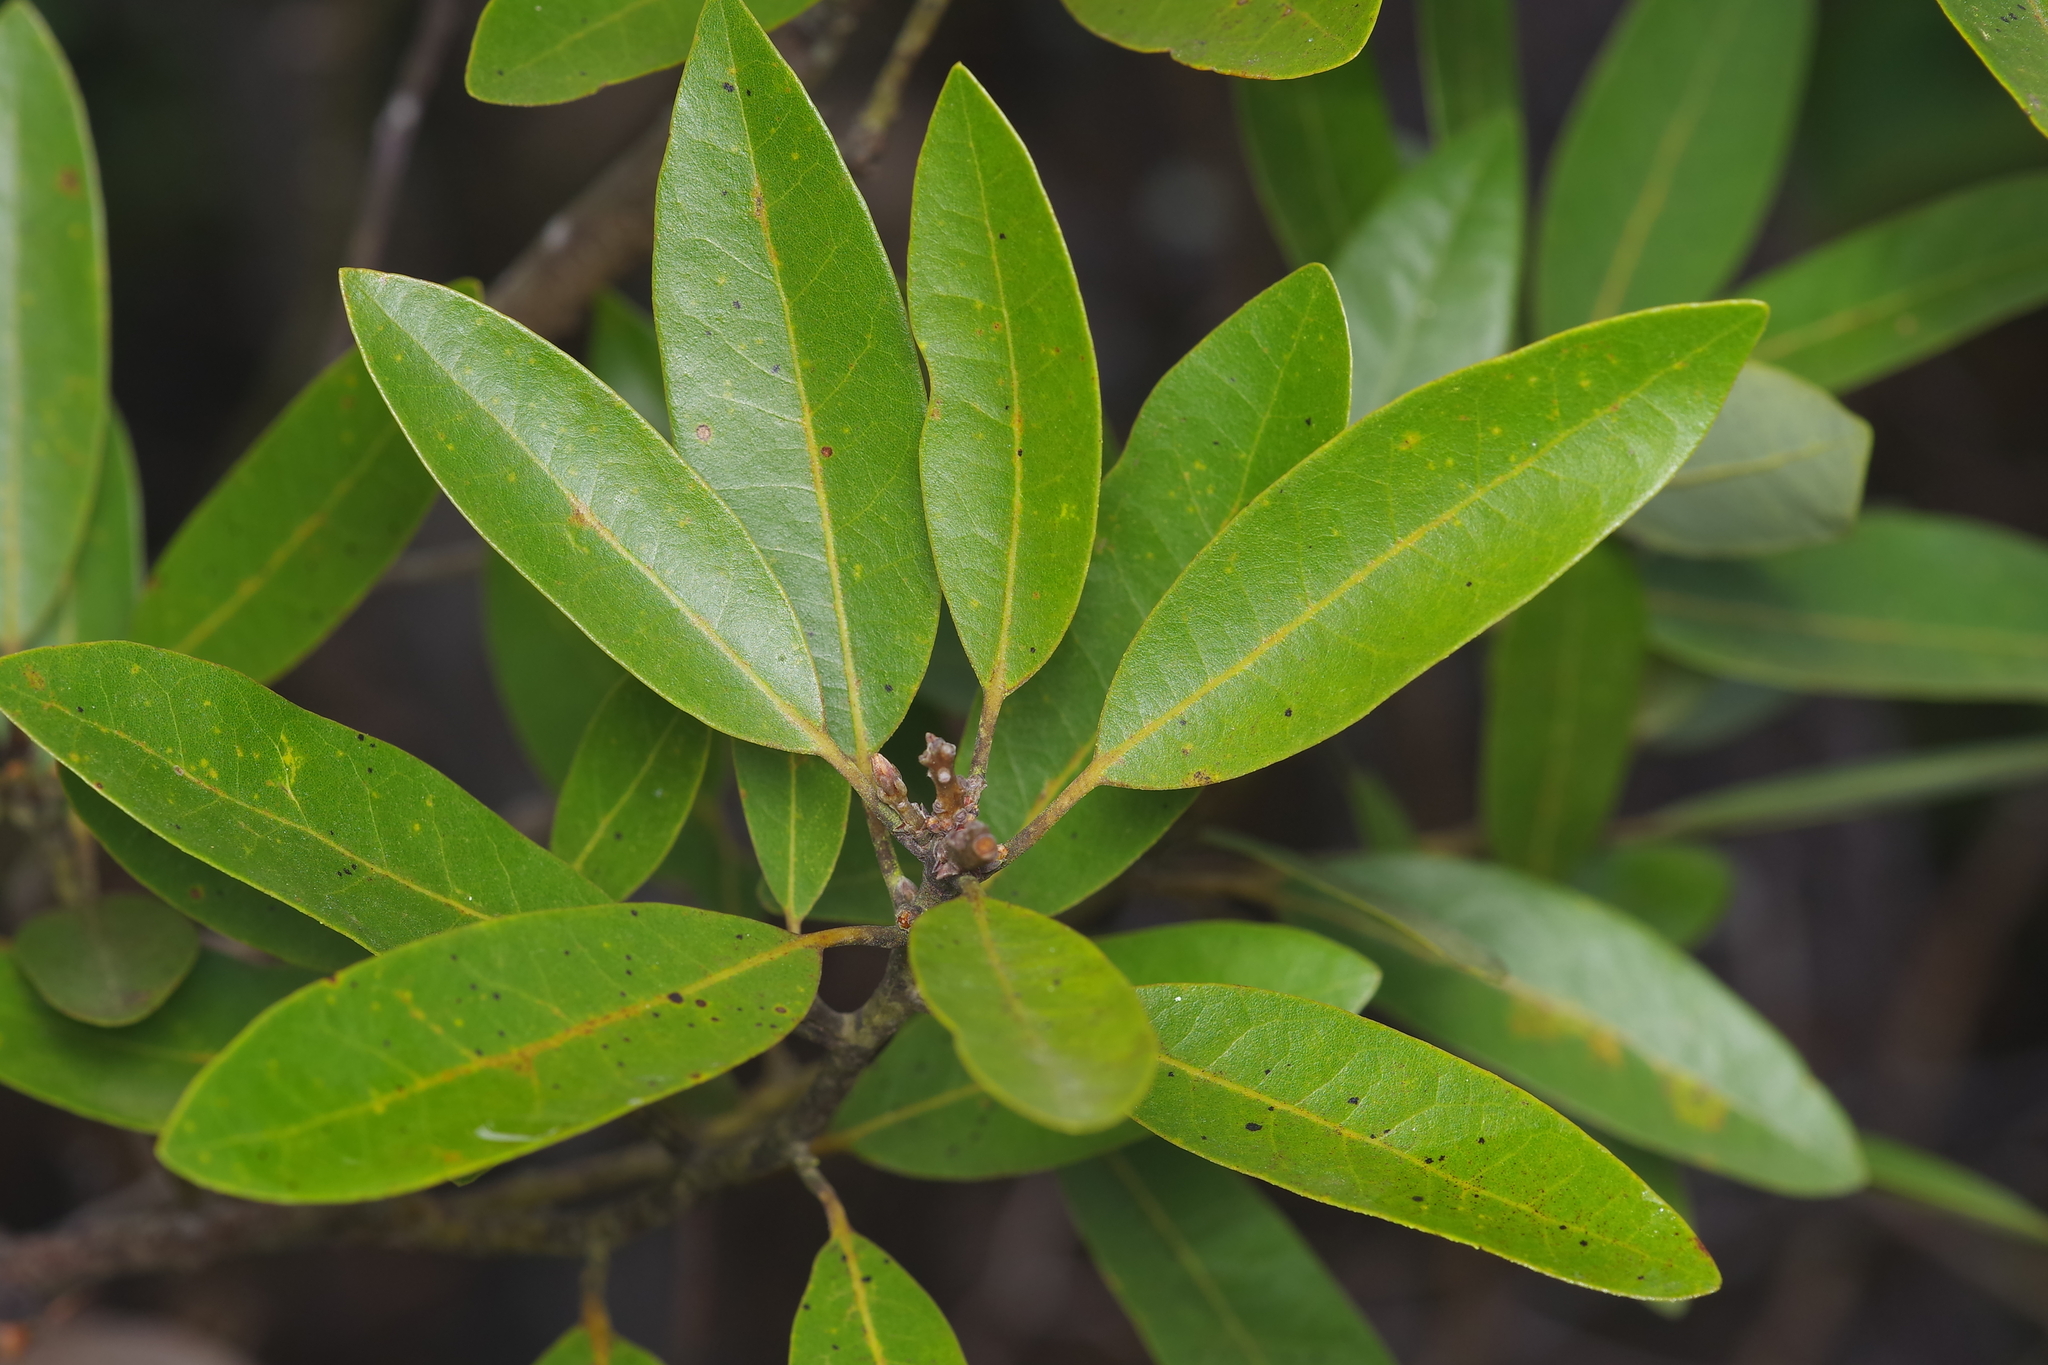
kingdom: Plantae
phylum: Tracheophyta
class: Magnoliopsida
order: Laurales
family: Lauraceae
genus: Persea
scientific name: Persea borbonia
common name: Redbay
